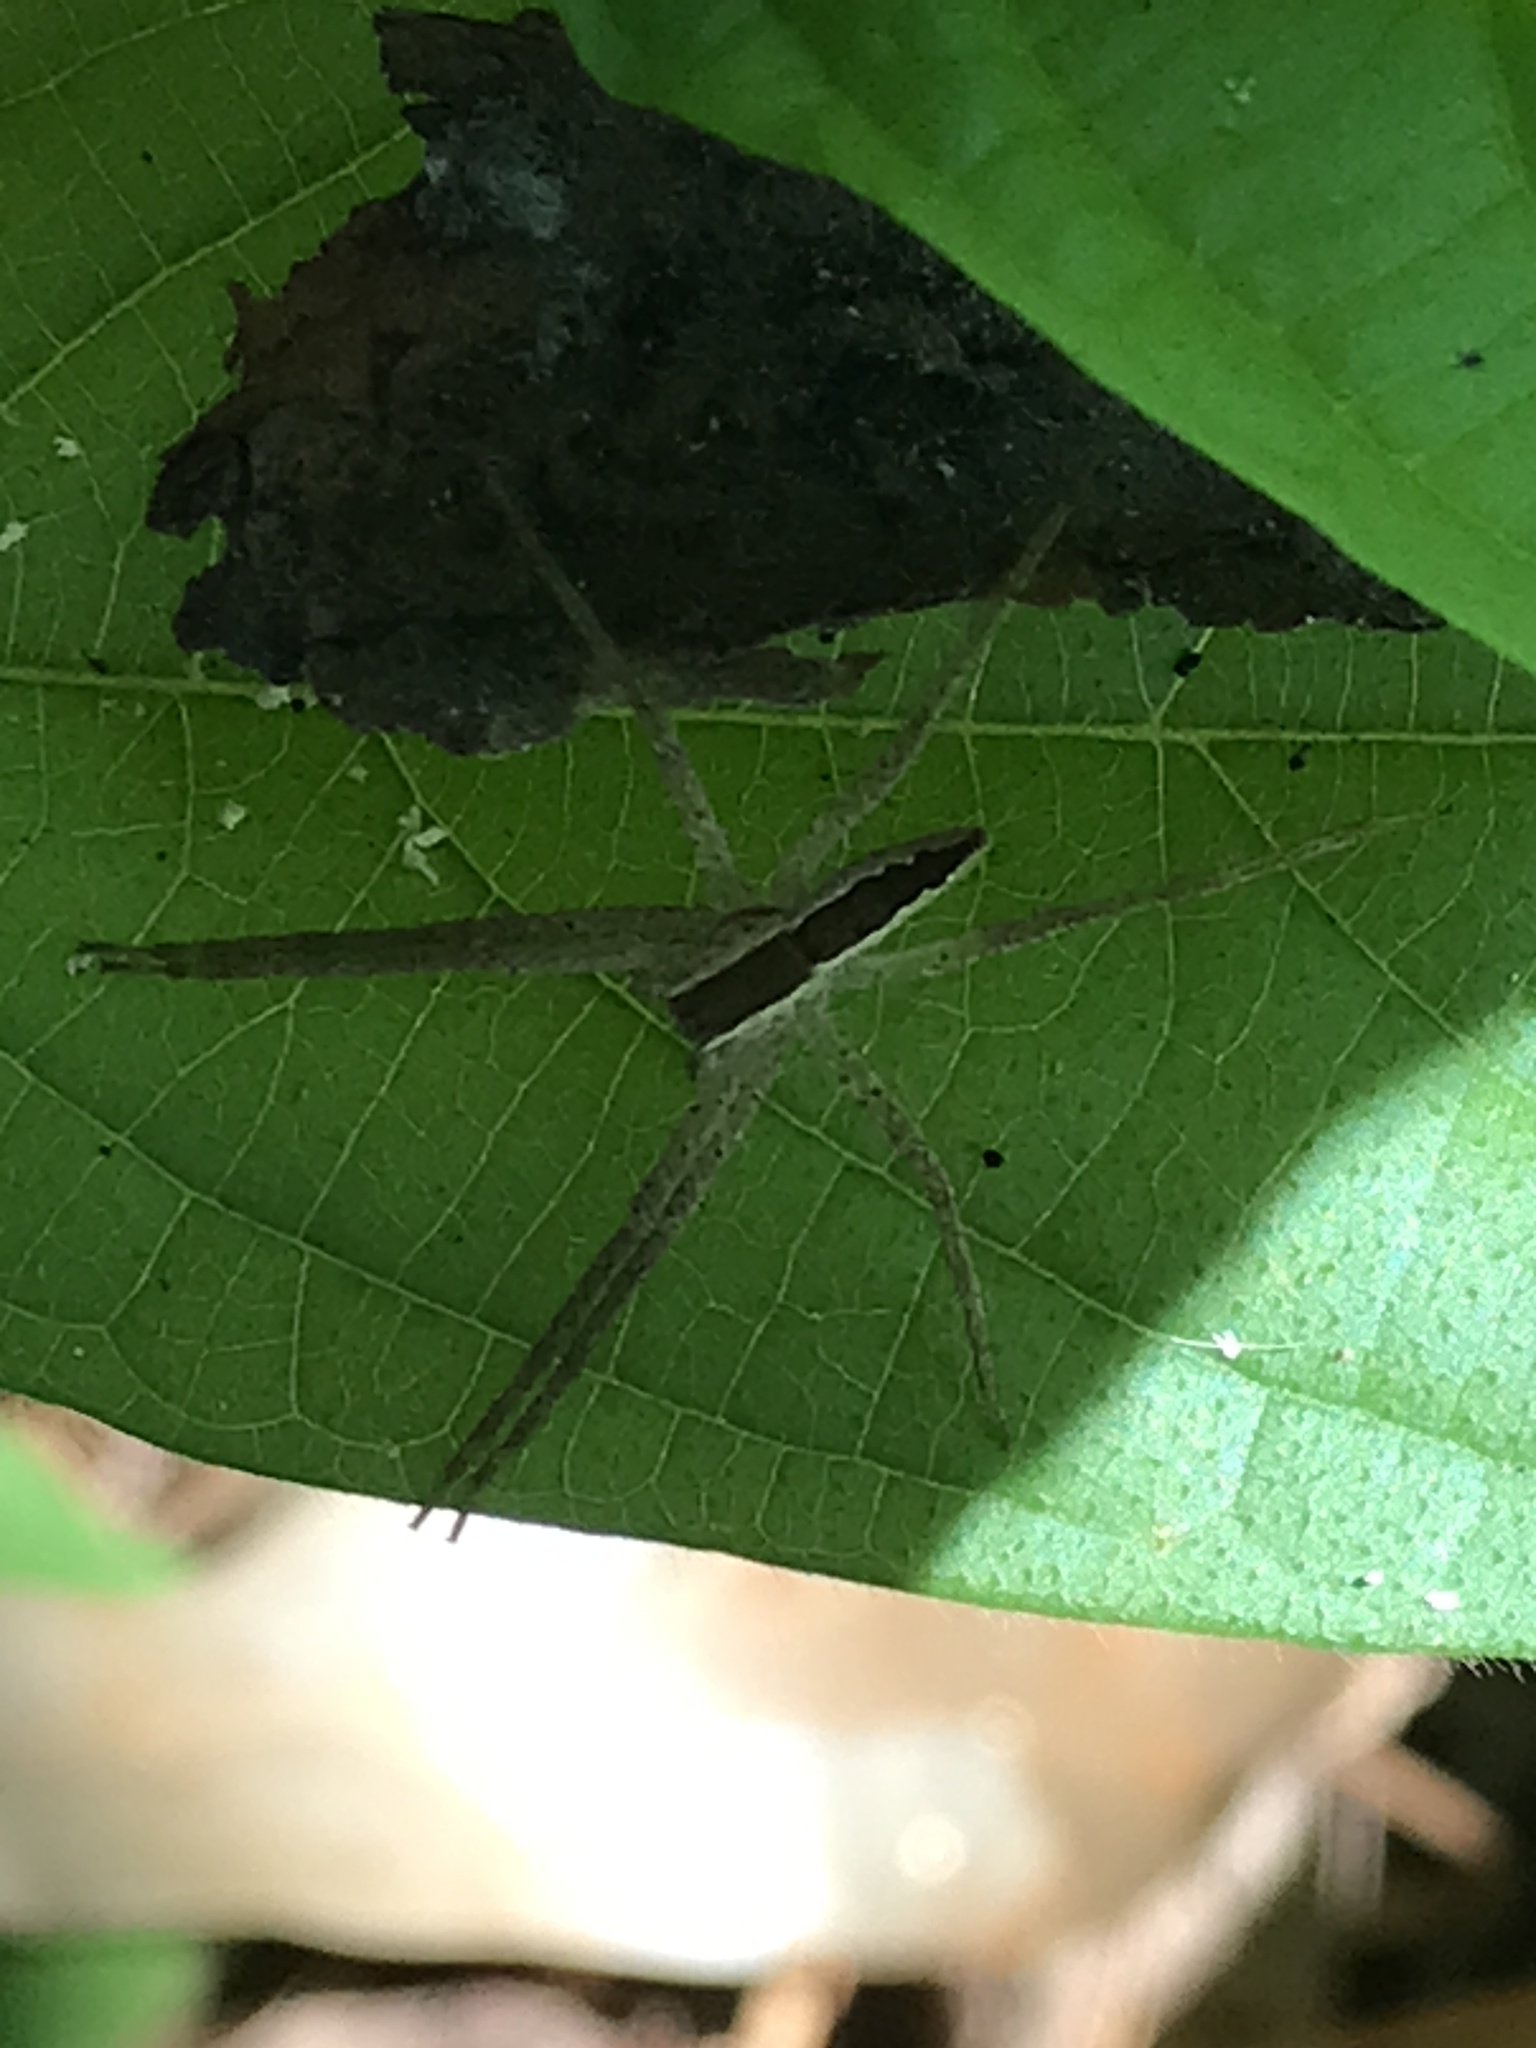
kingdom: Animalia
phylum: Arthropoda
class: Arachnida
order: Araneae
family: Pisauridae
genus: Pisaurina
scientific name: Pisaurina mira
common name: American nursery web spider
